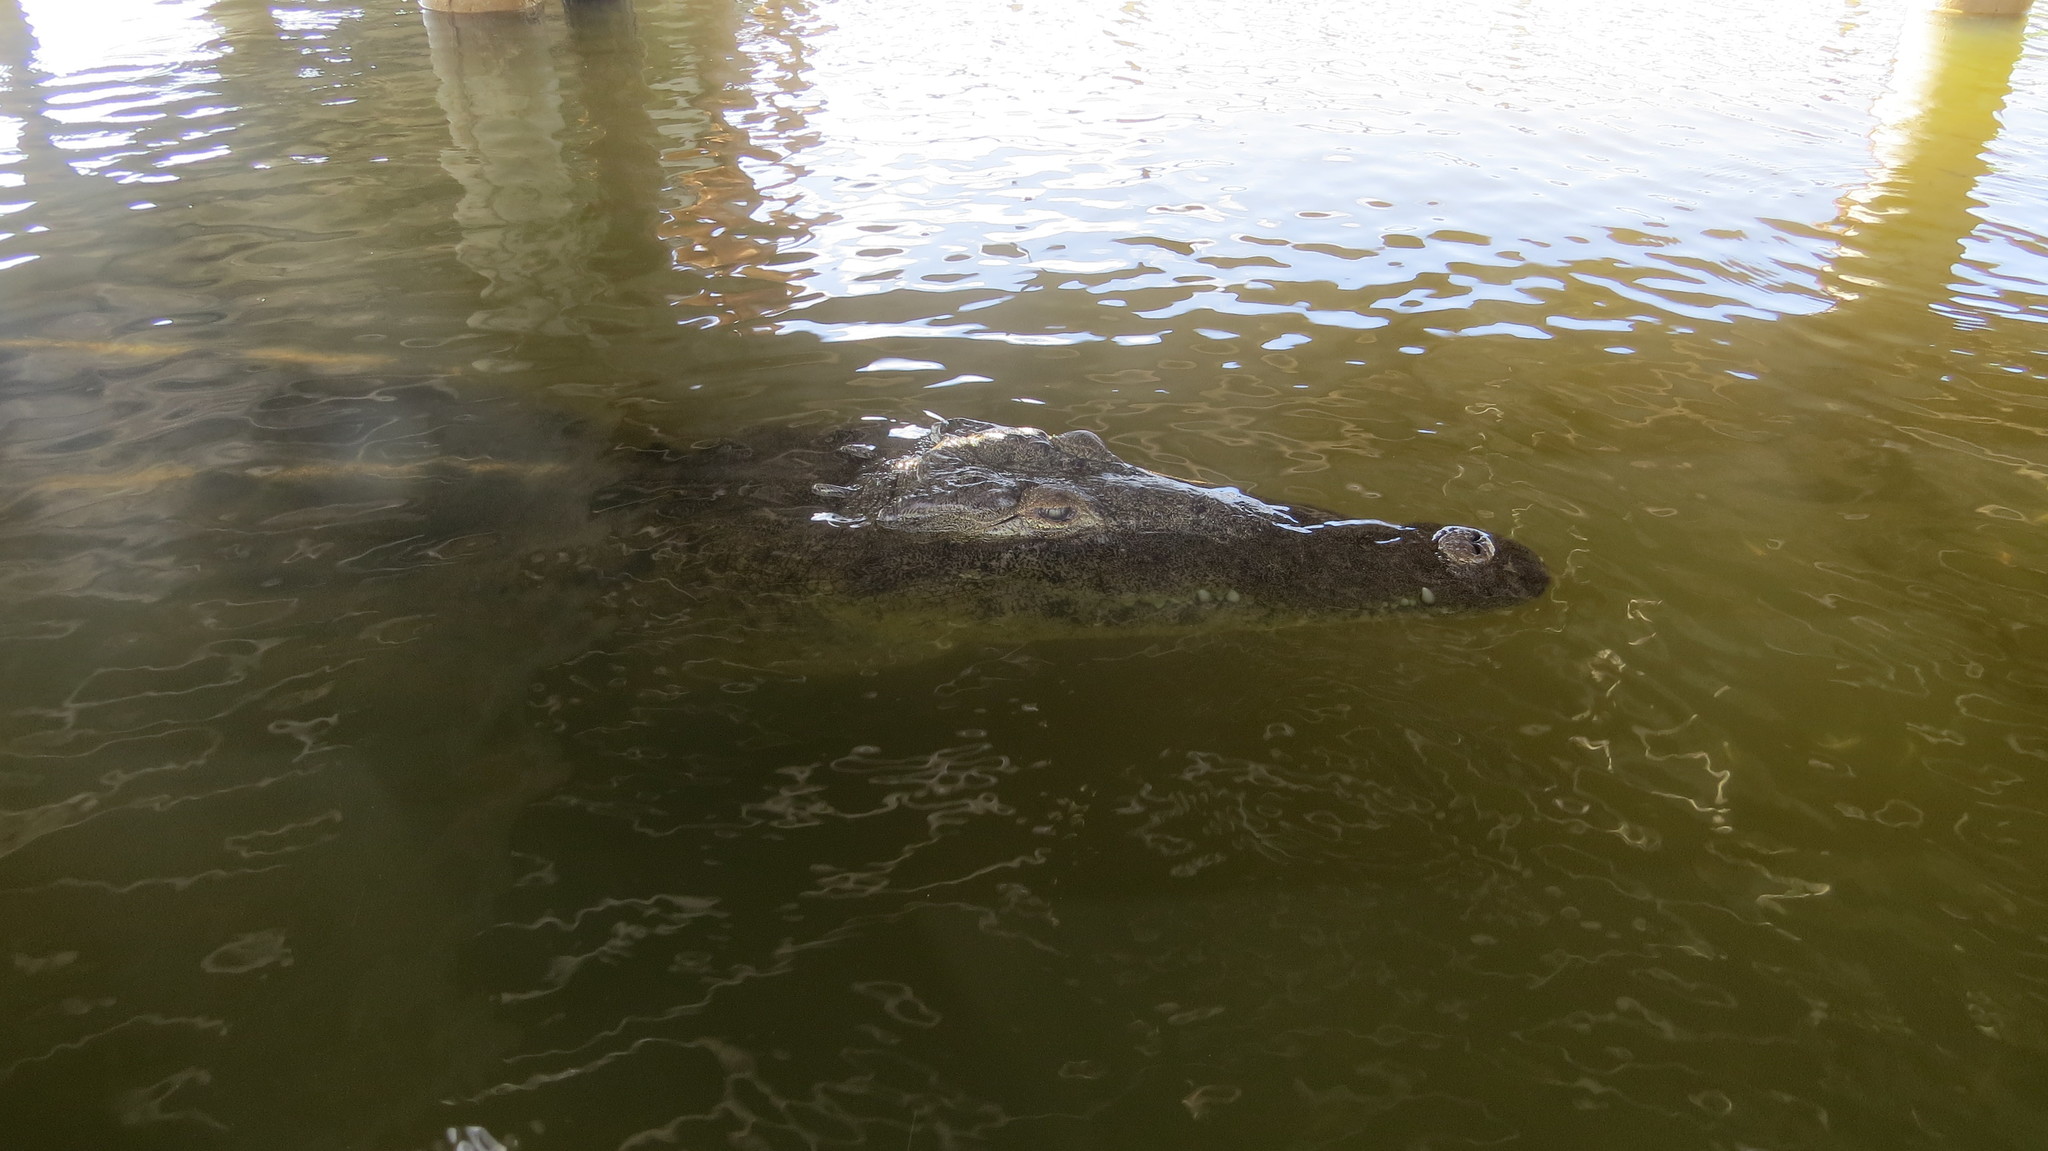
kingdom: Animalia
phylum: Chordata
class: Crocodylia
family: Crocodylidae
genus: Crocodylus
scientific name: Crocodylus acutus
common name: American crocodile
